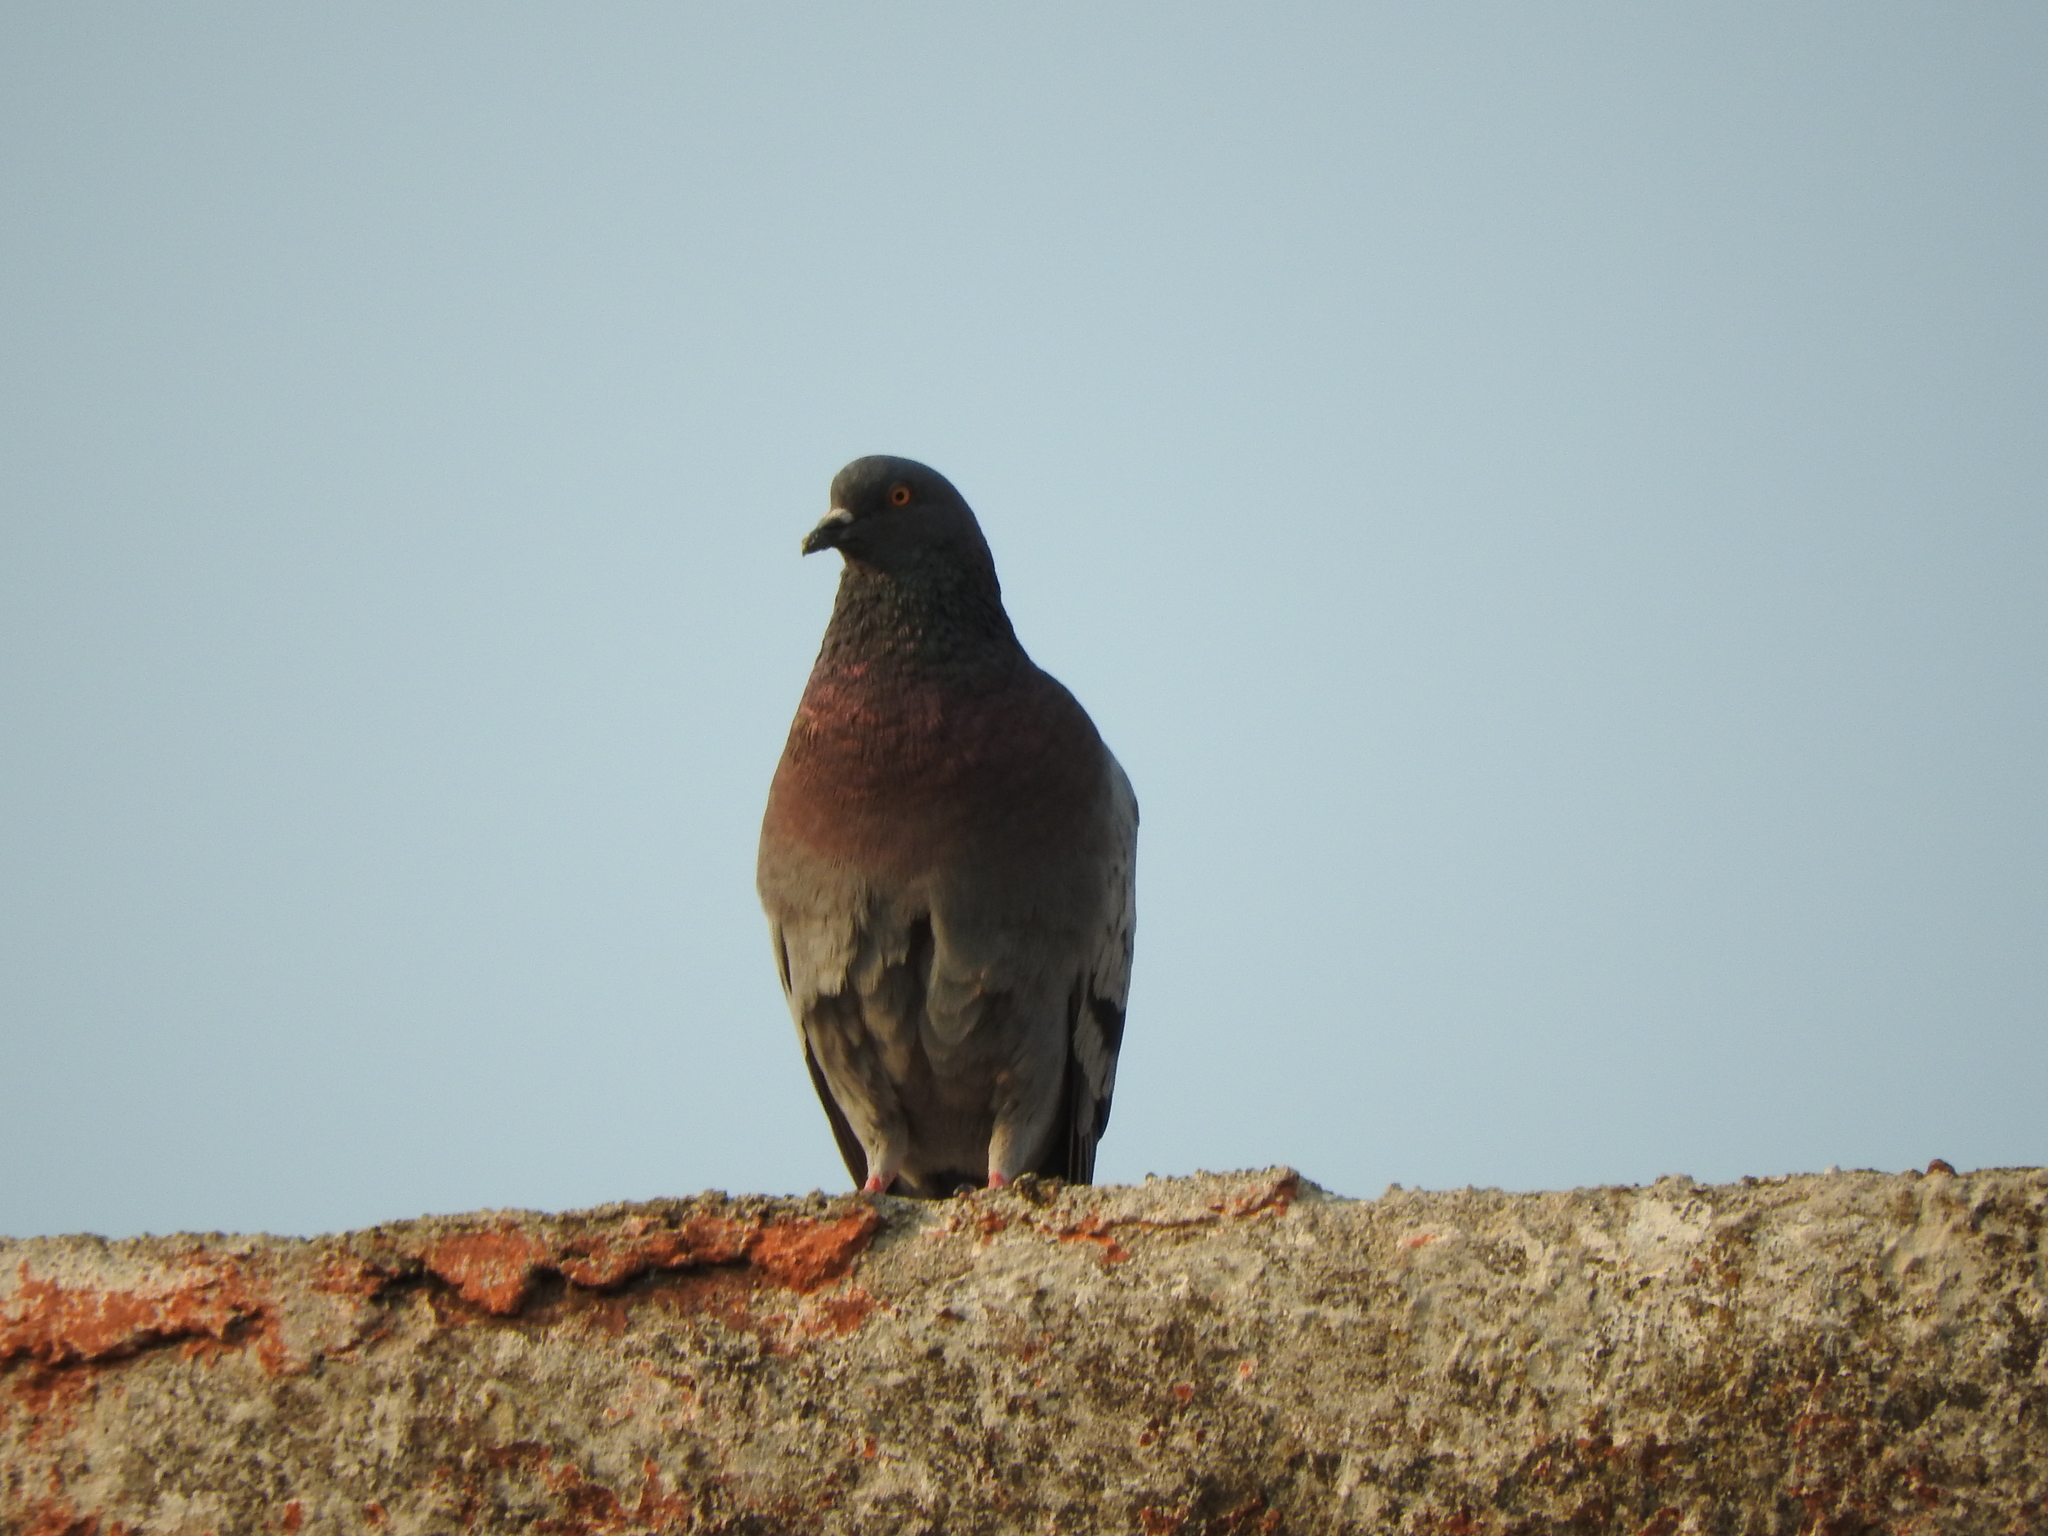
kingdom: Animalia
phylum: Chordata
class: Aves
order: Columbiformes
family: Columbidae
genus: Columba
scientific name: Columba livia
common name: Rock pigeon
